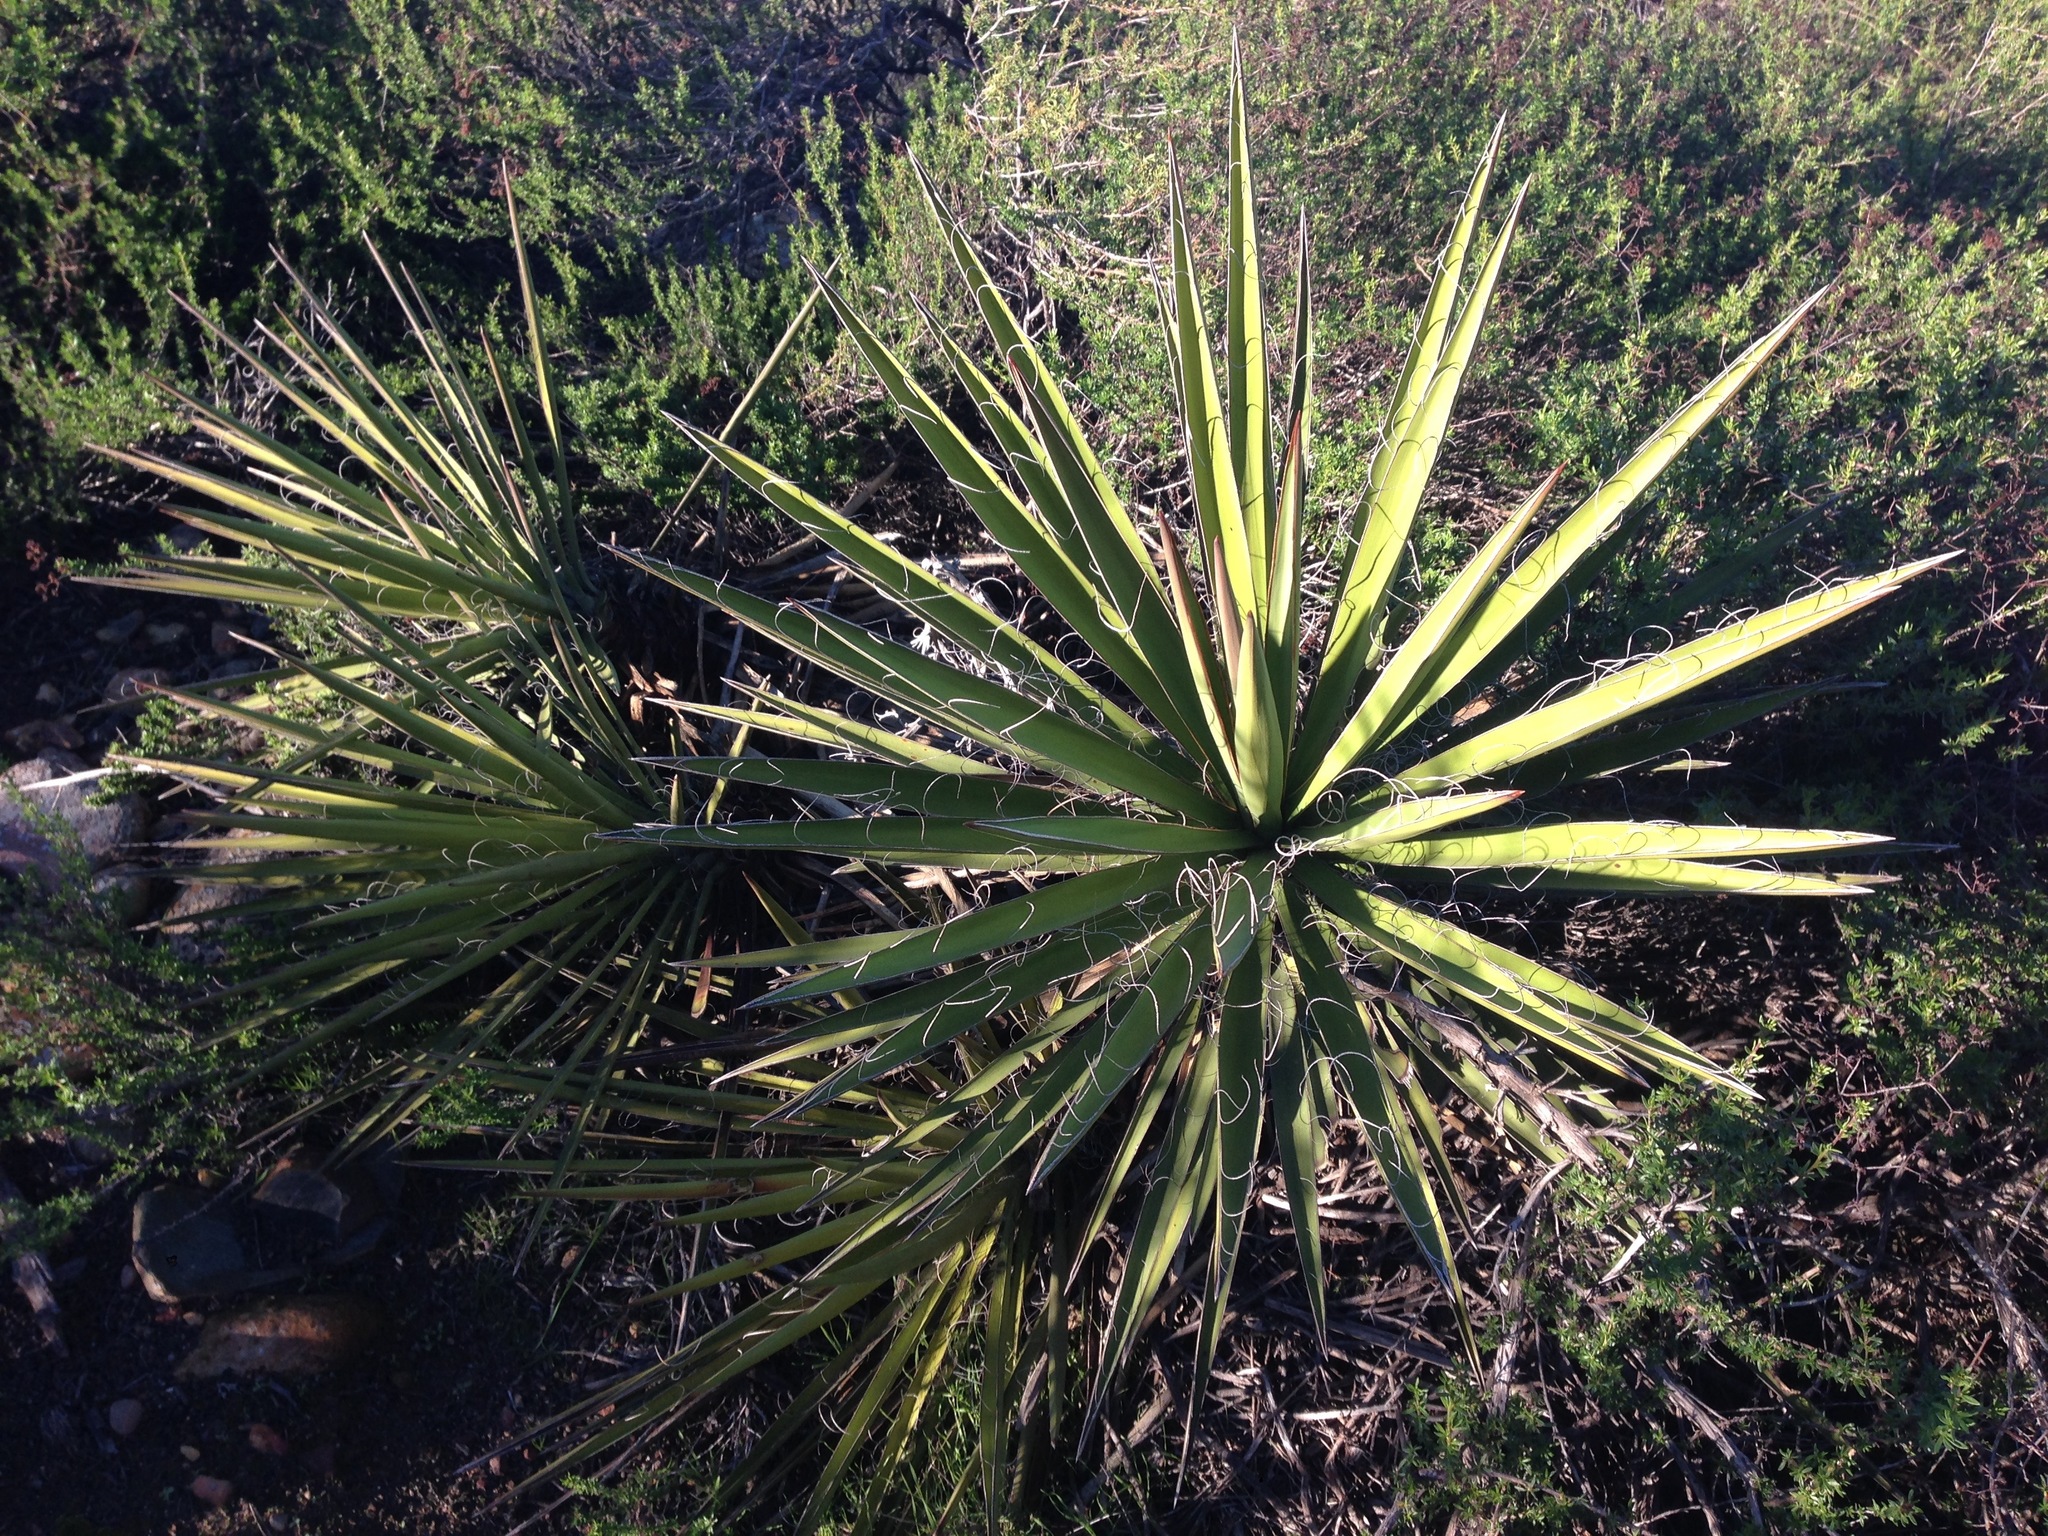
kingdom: Plantae
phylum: Tracheophyta
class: Liliopsida
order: Asparagales
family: Asparagaceae
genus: Yucca
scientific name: Yucca schidigera
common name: Mojave yucca
